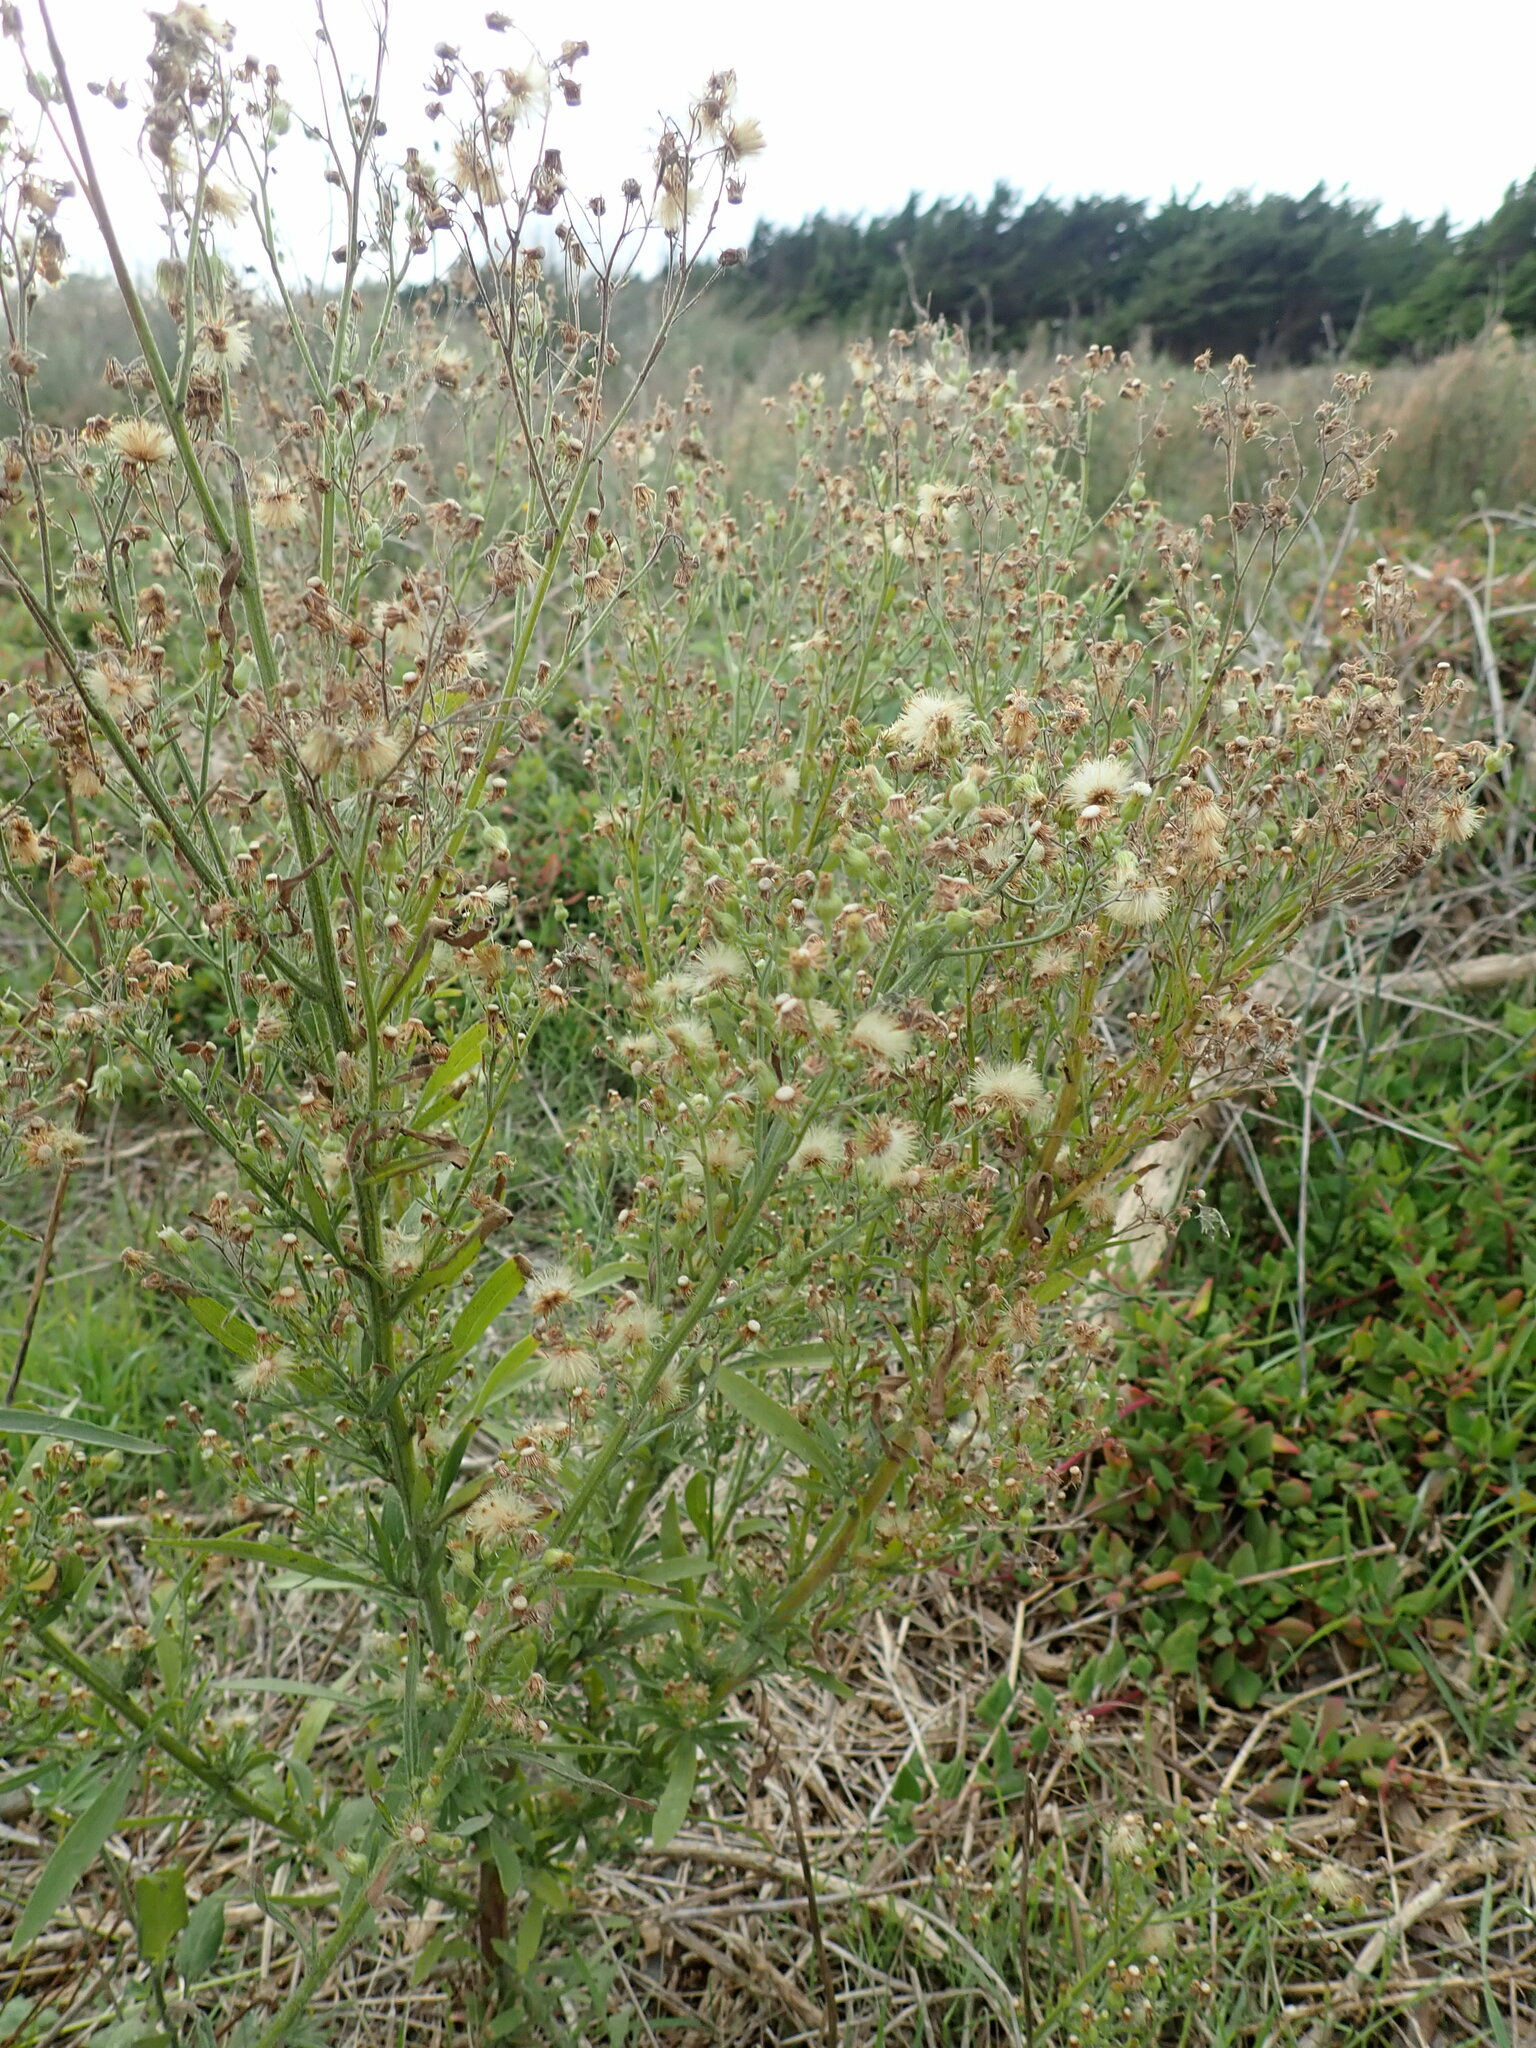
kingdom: Plantae
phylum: Tracheophyta
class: Magnoliopsida
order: Asterales
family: Asteraceae
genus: Erigeron
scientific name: Erigeron sumatrensis
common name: Daisy
